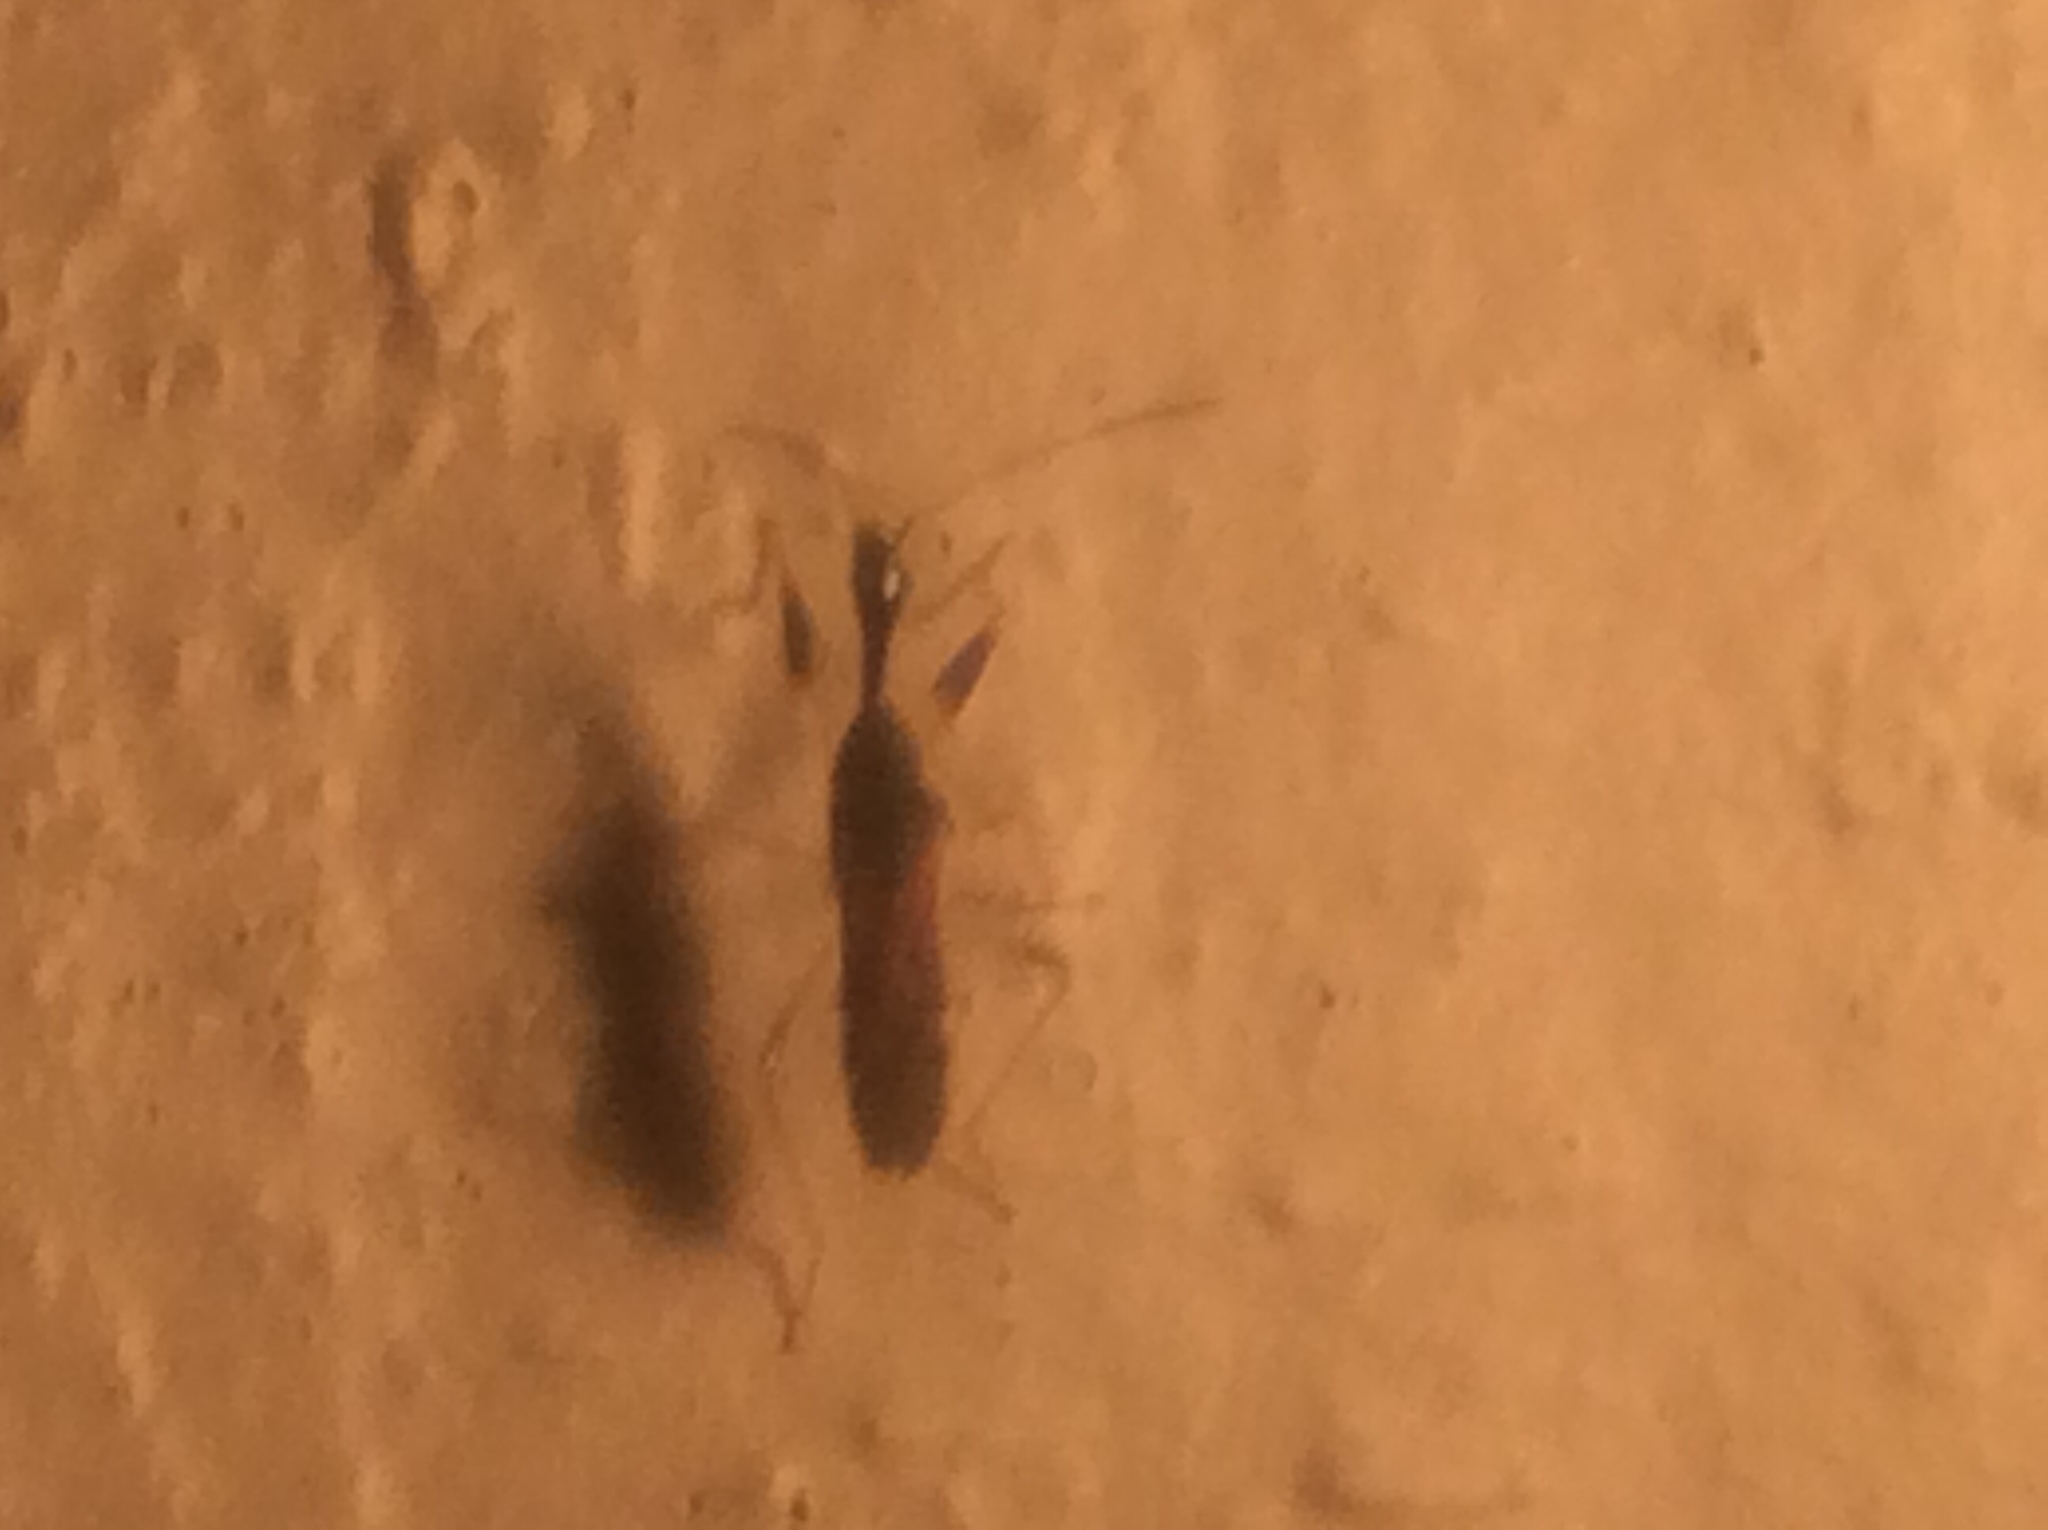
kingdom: Animalia
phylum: Arthropoda
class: Insecta
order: Hemiptera
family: Rhyparochromidae
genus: Myodocha
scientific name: Myodocha serripes
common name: Long-necked seed bug
